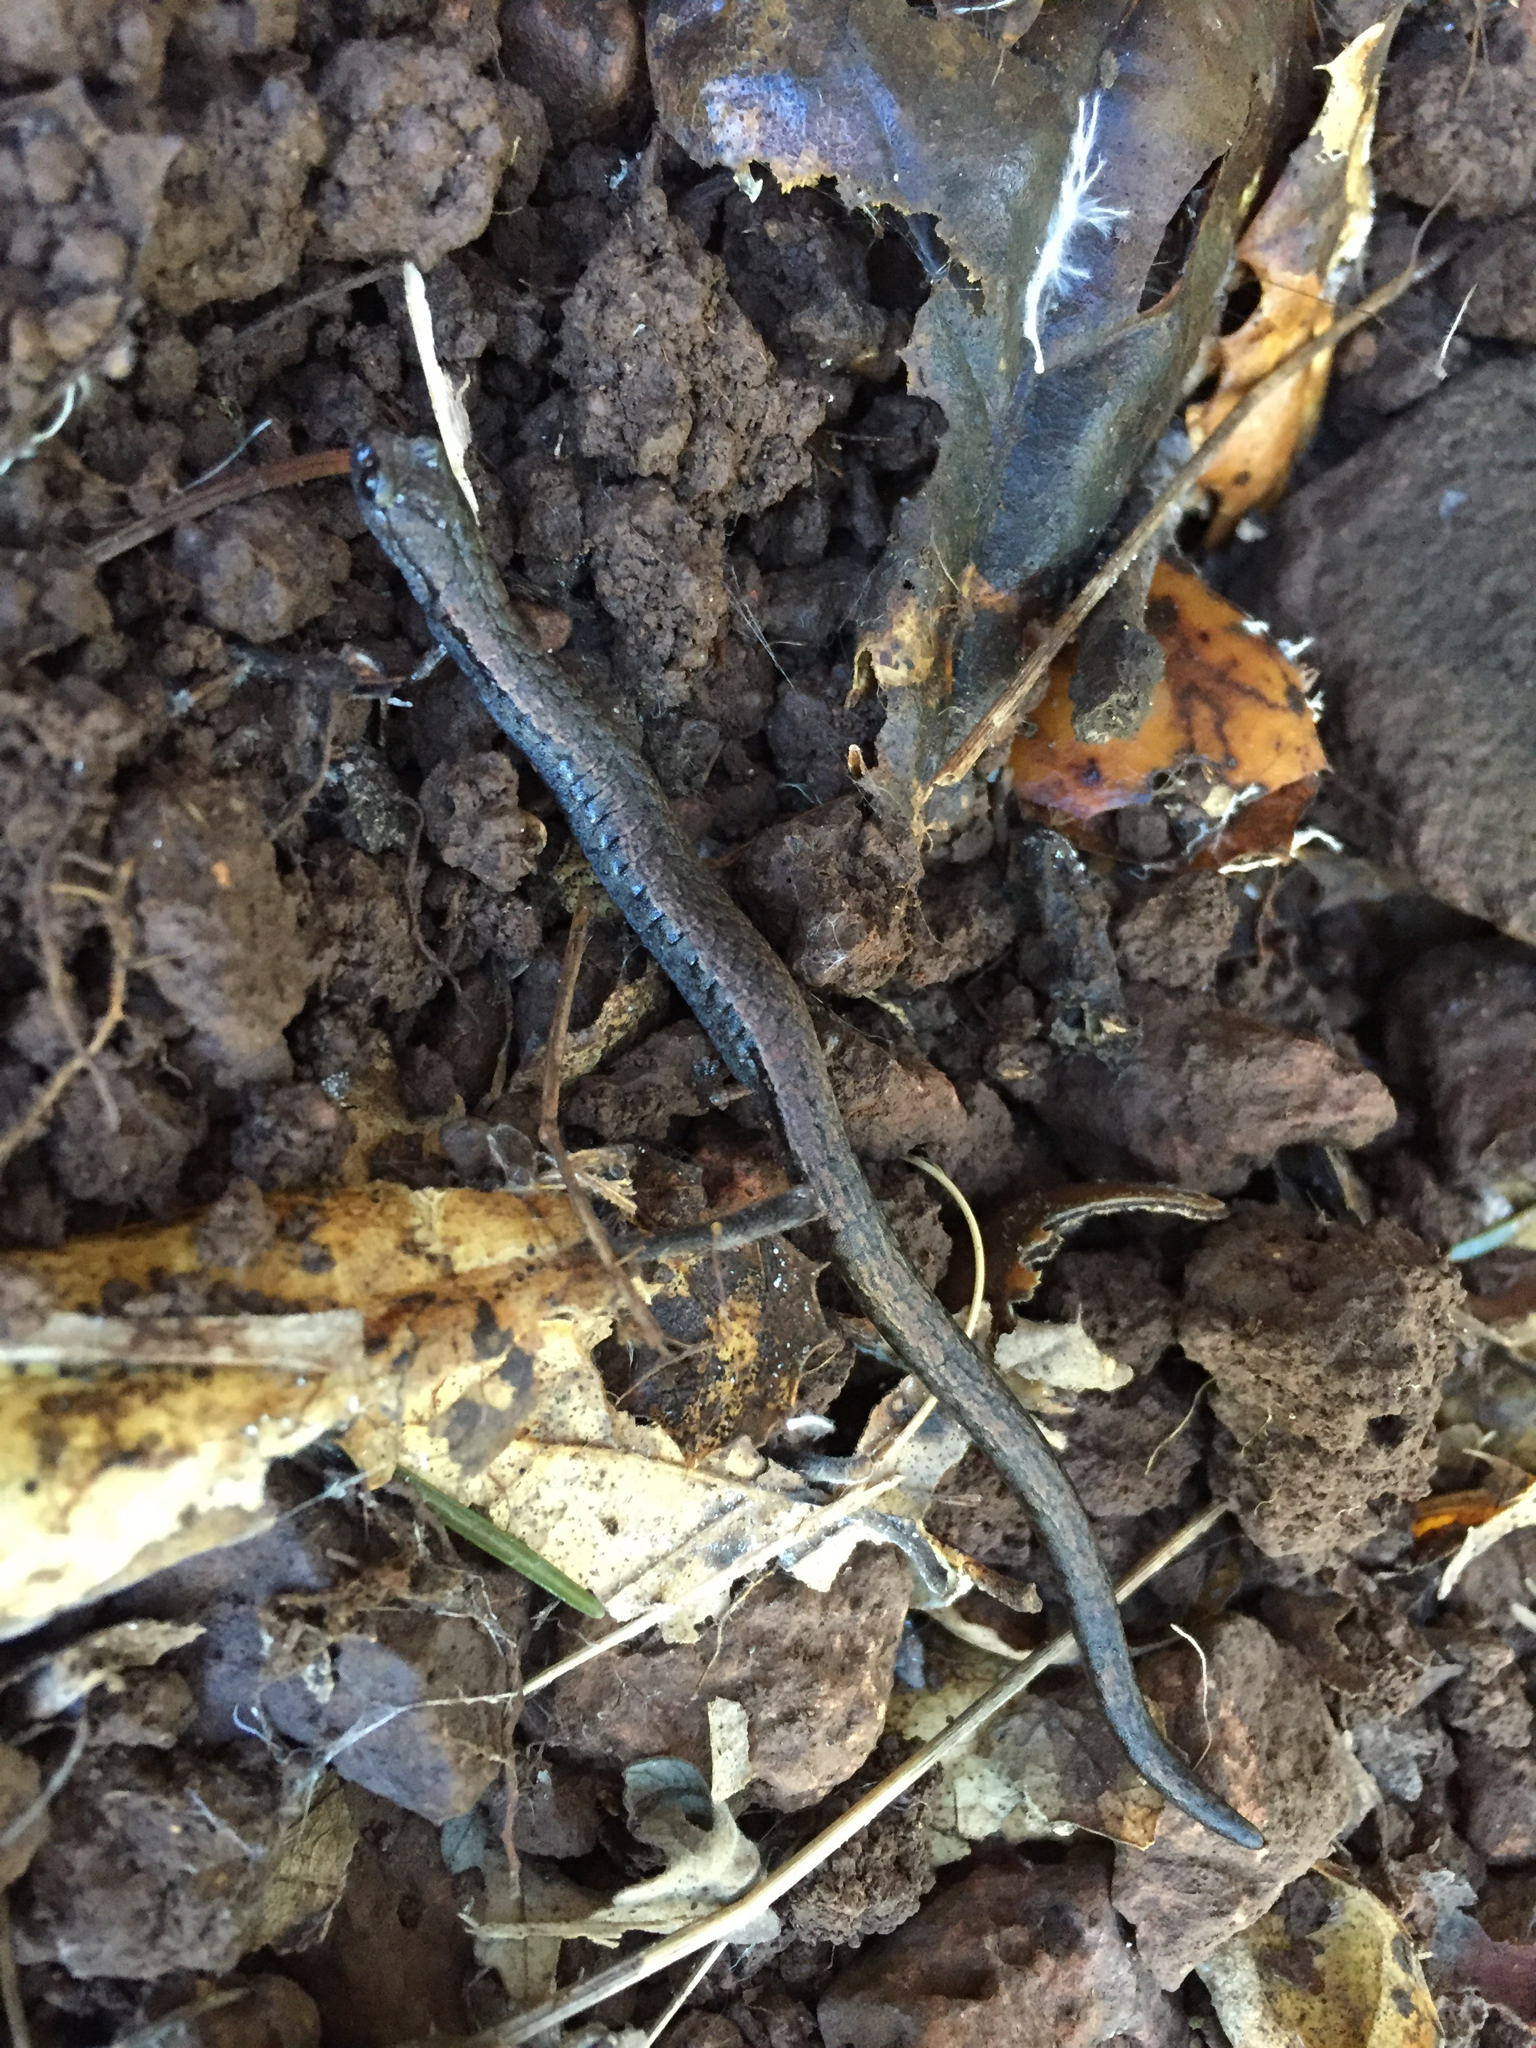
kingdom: Animalia
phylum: Chordata
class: Amphibia
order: Caudata
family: Plethodontidae
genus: Batrachoseps
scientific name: Batrachoseps attenuatus
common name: California slender salamander
